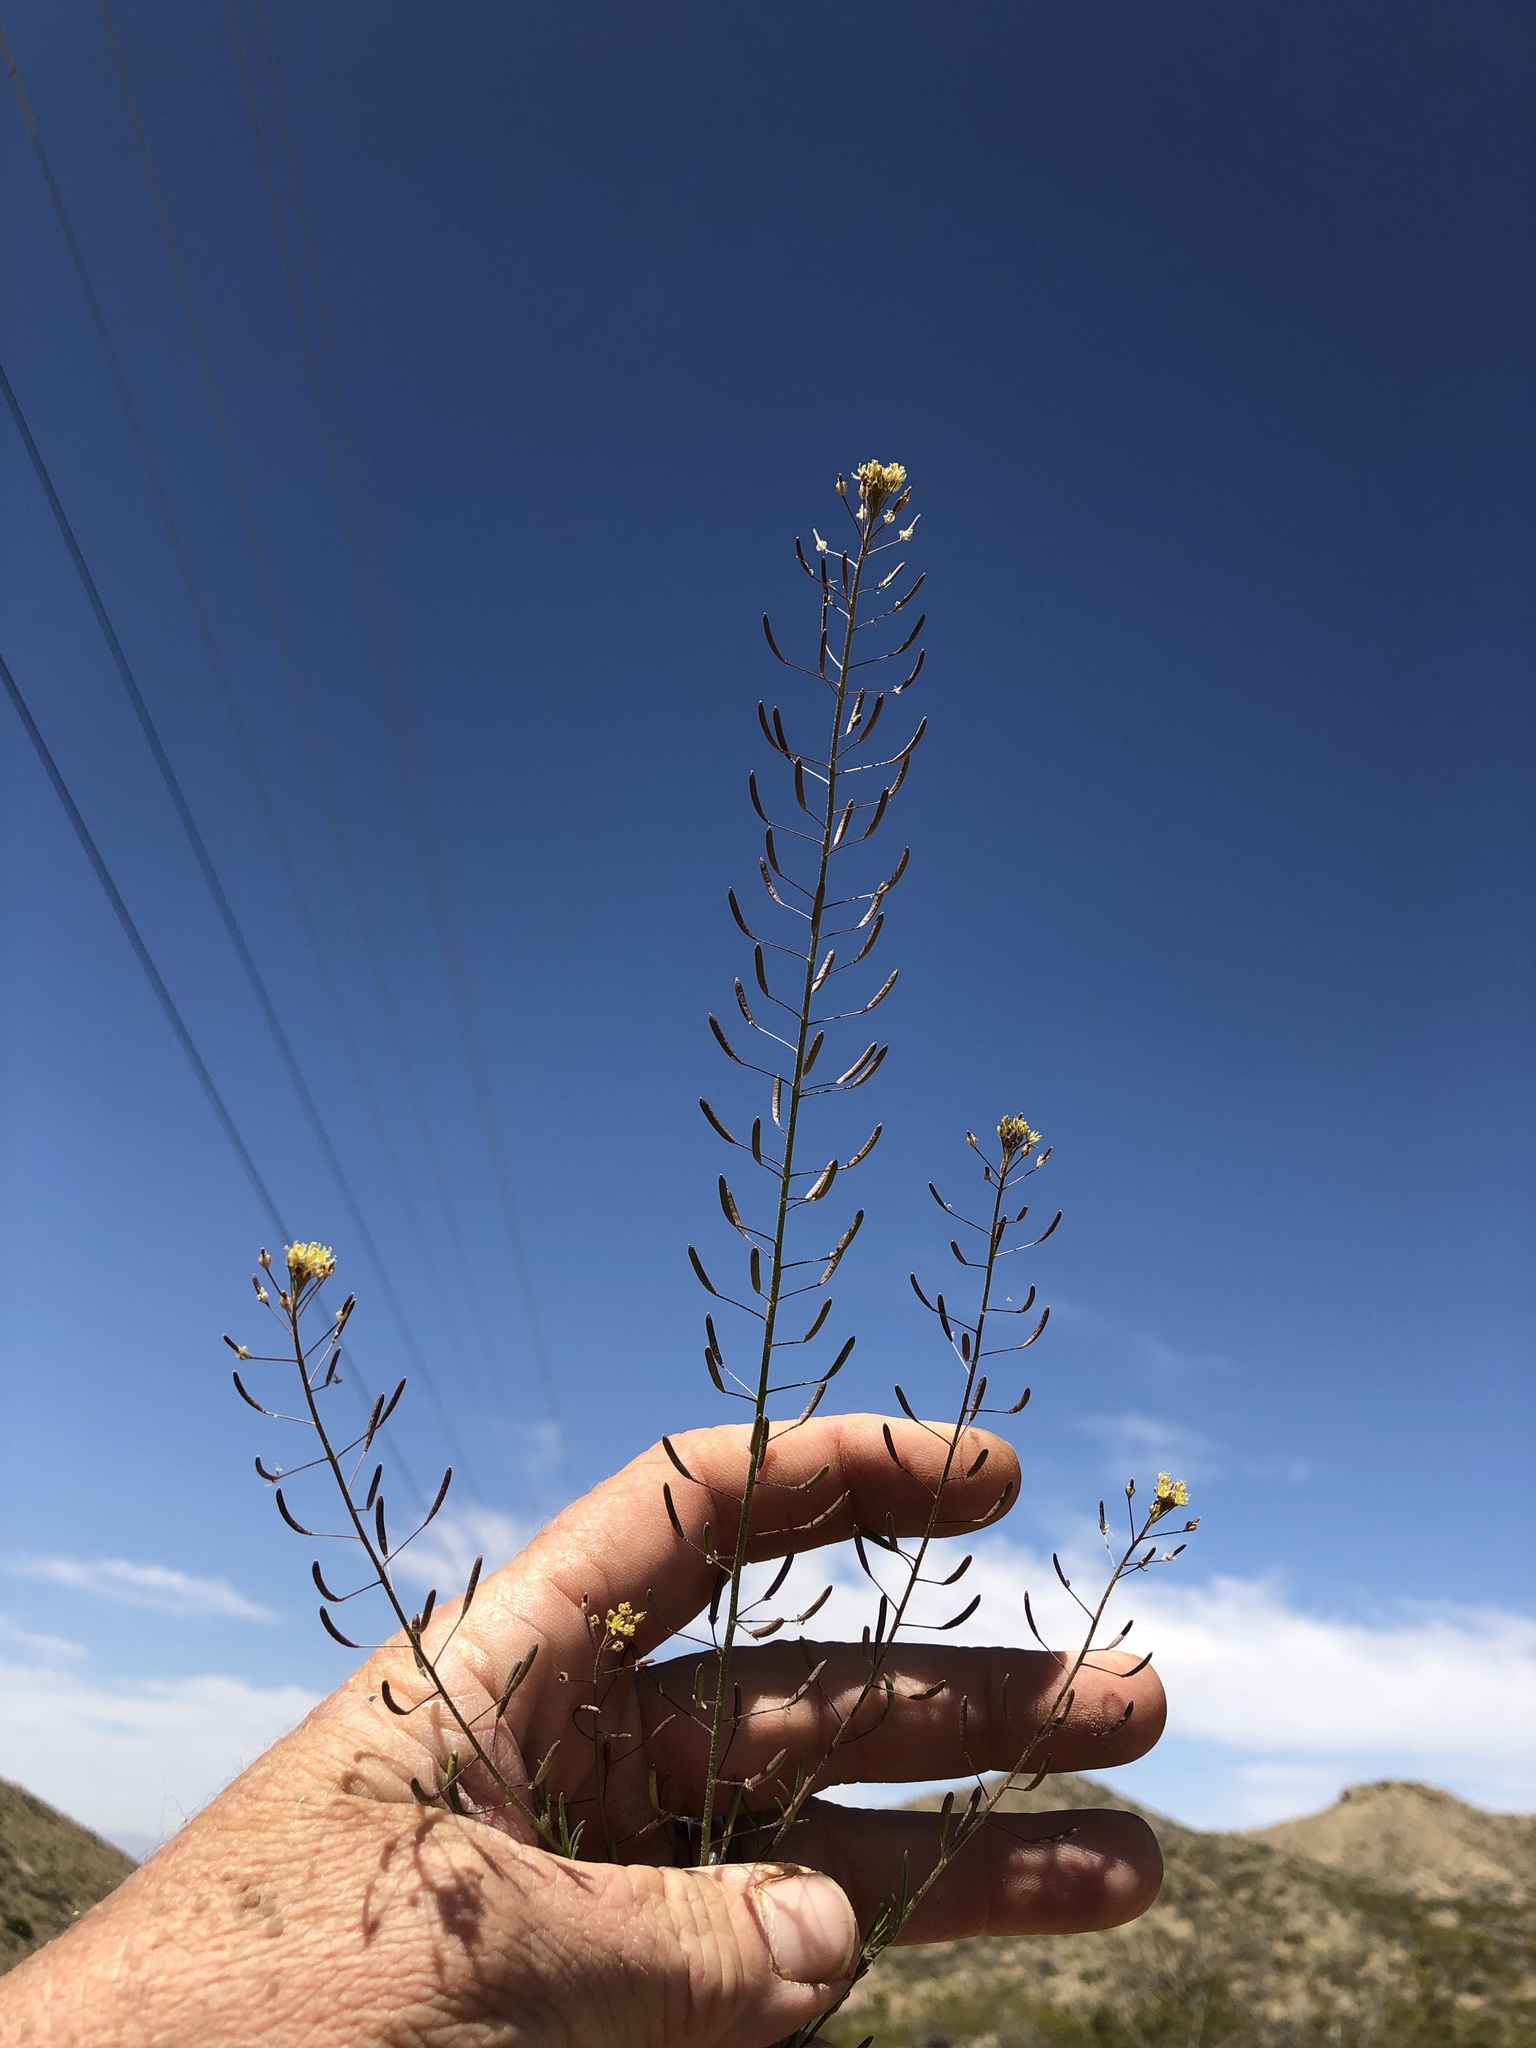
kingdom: Plantae
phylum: Tracheophyta
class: Magnoliopsida
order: Brassicales
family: Brassicaceae
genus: Descurainia
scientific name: Descurainia pinnata
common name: Western tansy mustard
